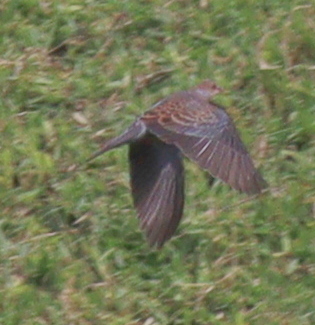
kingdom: Animalia
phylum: Chordata
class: Aves
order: Columbiformes
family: Columbidae
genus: Streptopelia
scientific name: Streptopelia orientalis
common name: Oriental turtle dove
